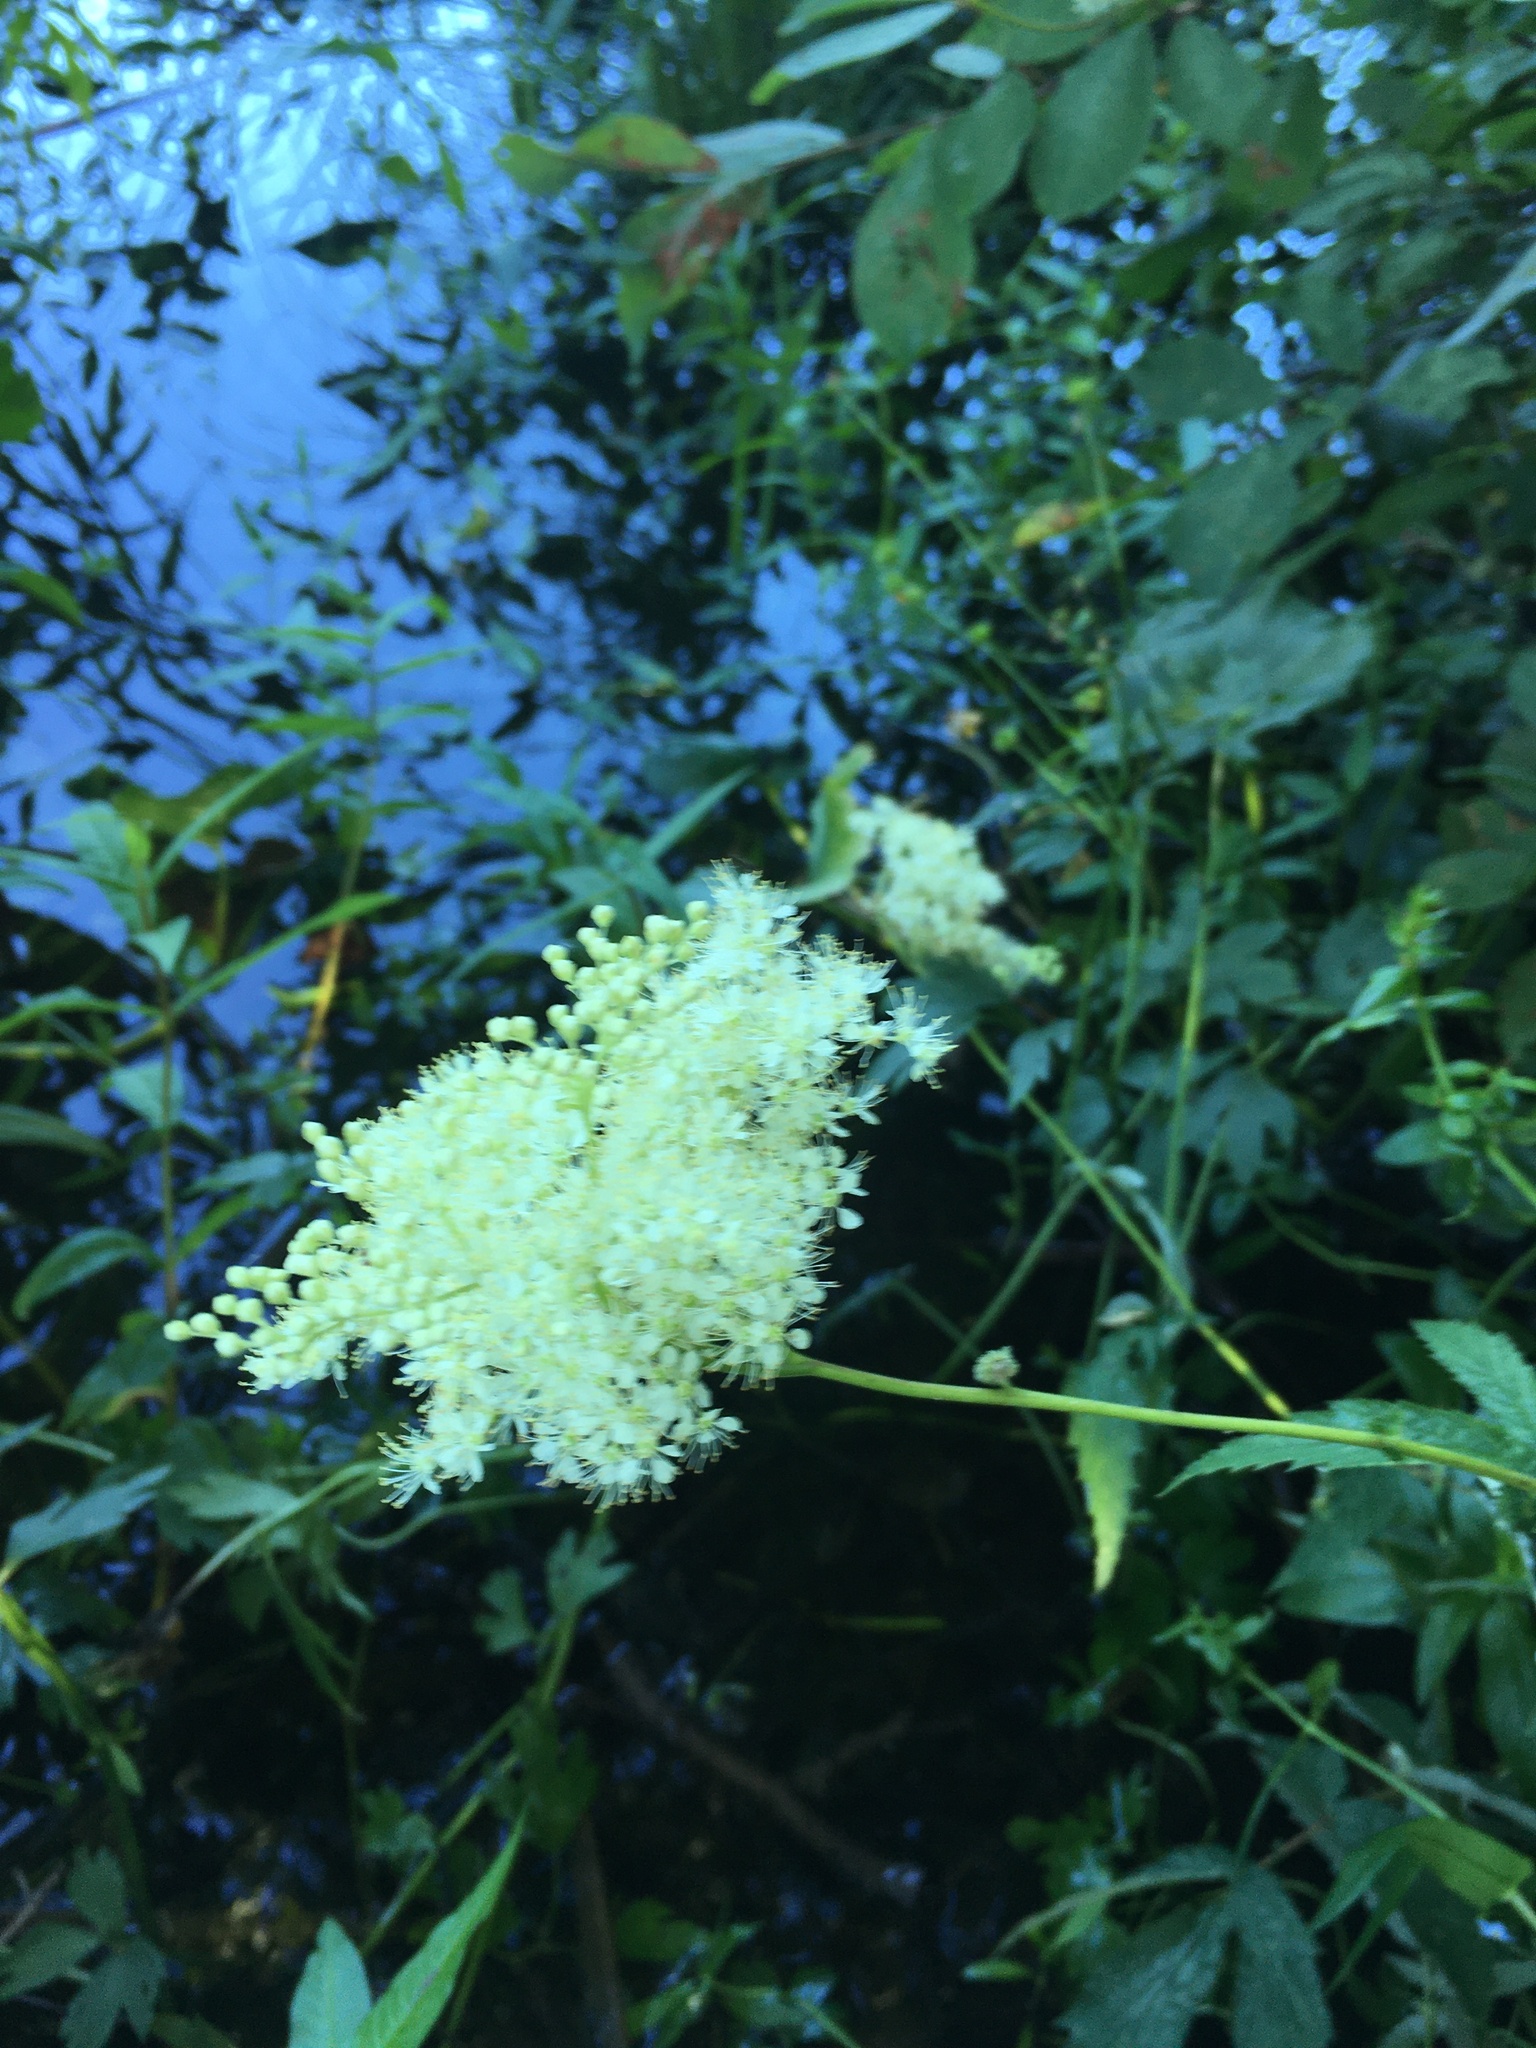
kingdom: Plantae
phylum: Tracheophyta
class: Magnoliopsida
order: Rosales
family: Rosaceae
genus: Filipendula
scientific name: Filipendula ulmaria
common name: Meadowsweet
